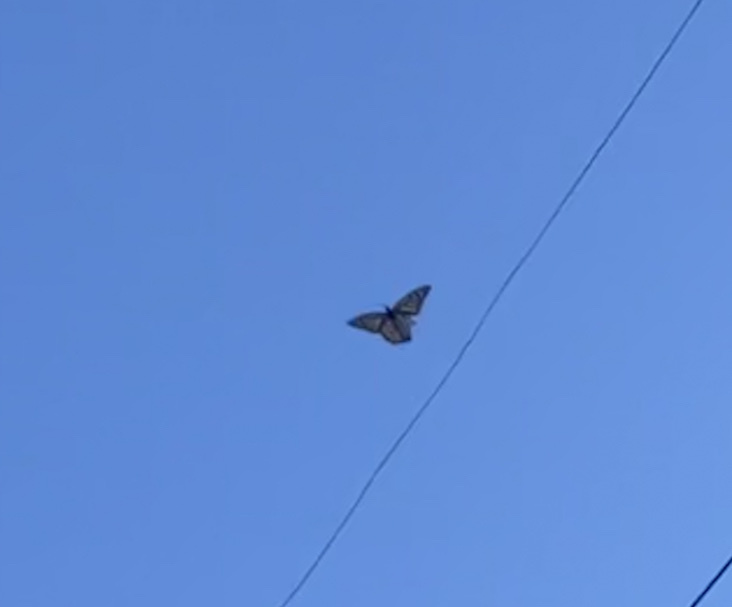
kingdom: Animalia
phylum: Arthropoda
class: Insecta
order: Lepidoptera
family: Nymphalidae
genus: Danaus
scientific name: Danaus plexippus
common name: Monarch
